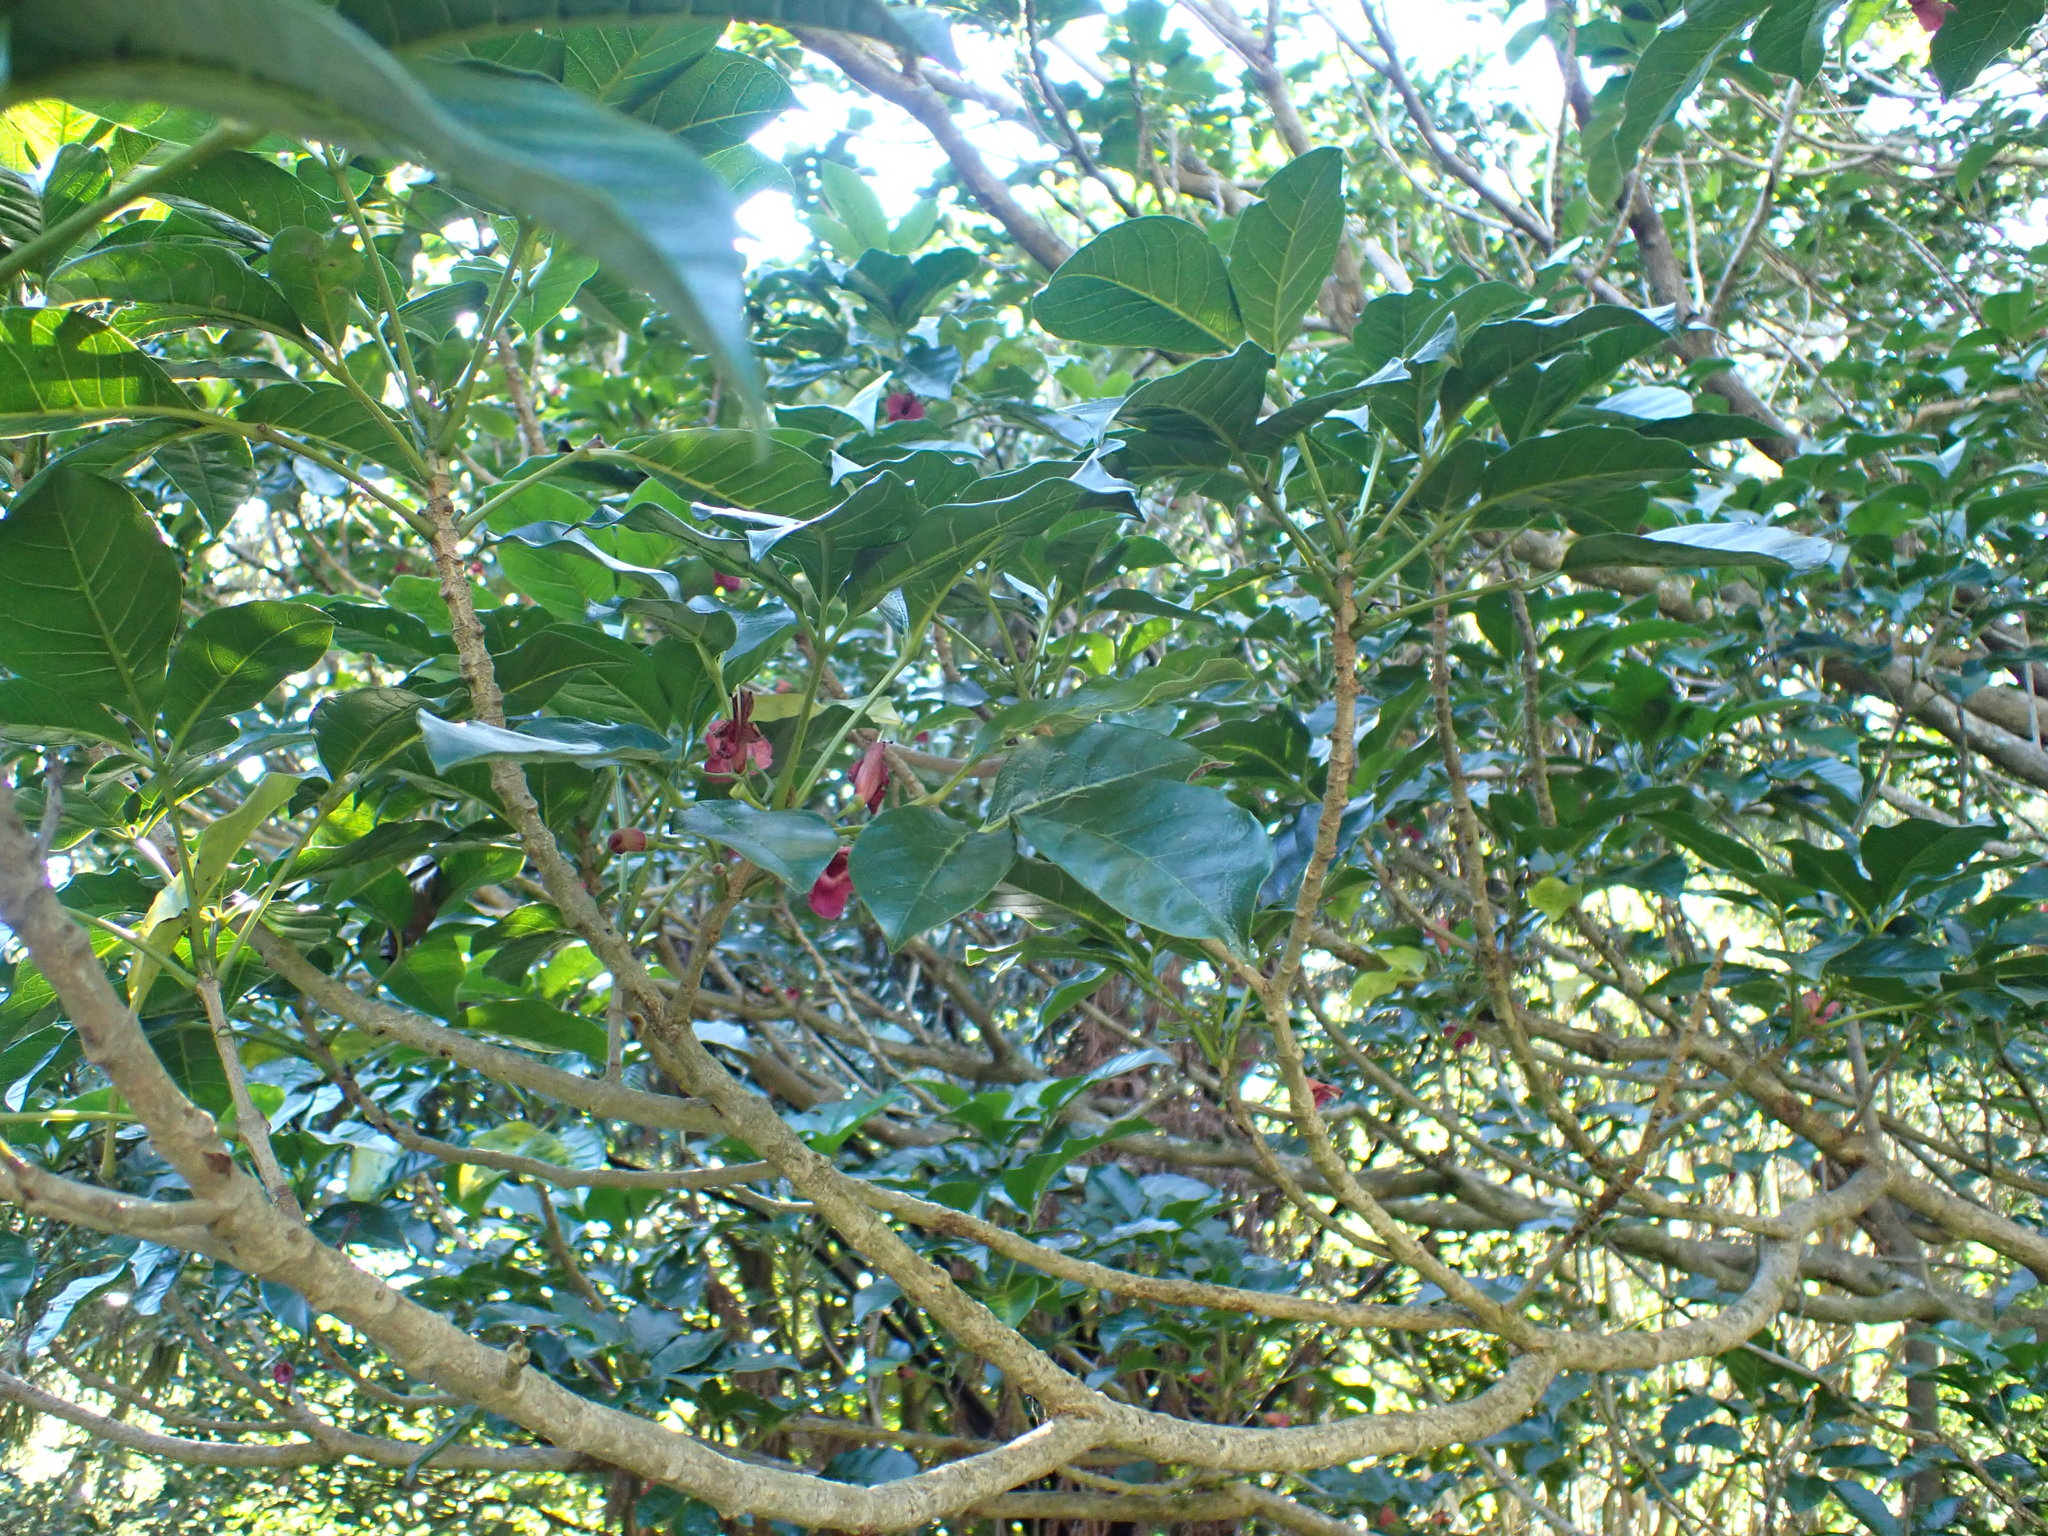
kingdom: Plantae
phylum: Tracheophyta
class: Magnoliopsida
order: Lamiales
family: Lamiaceae
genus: Vitex
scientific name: Vitex lucens
